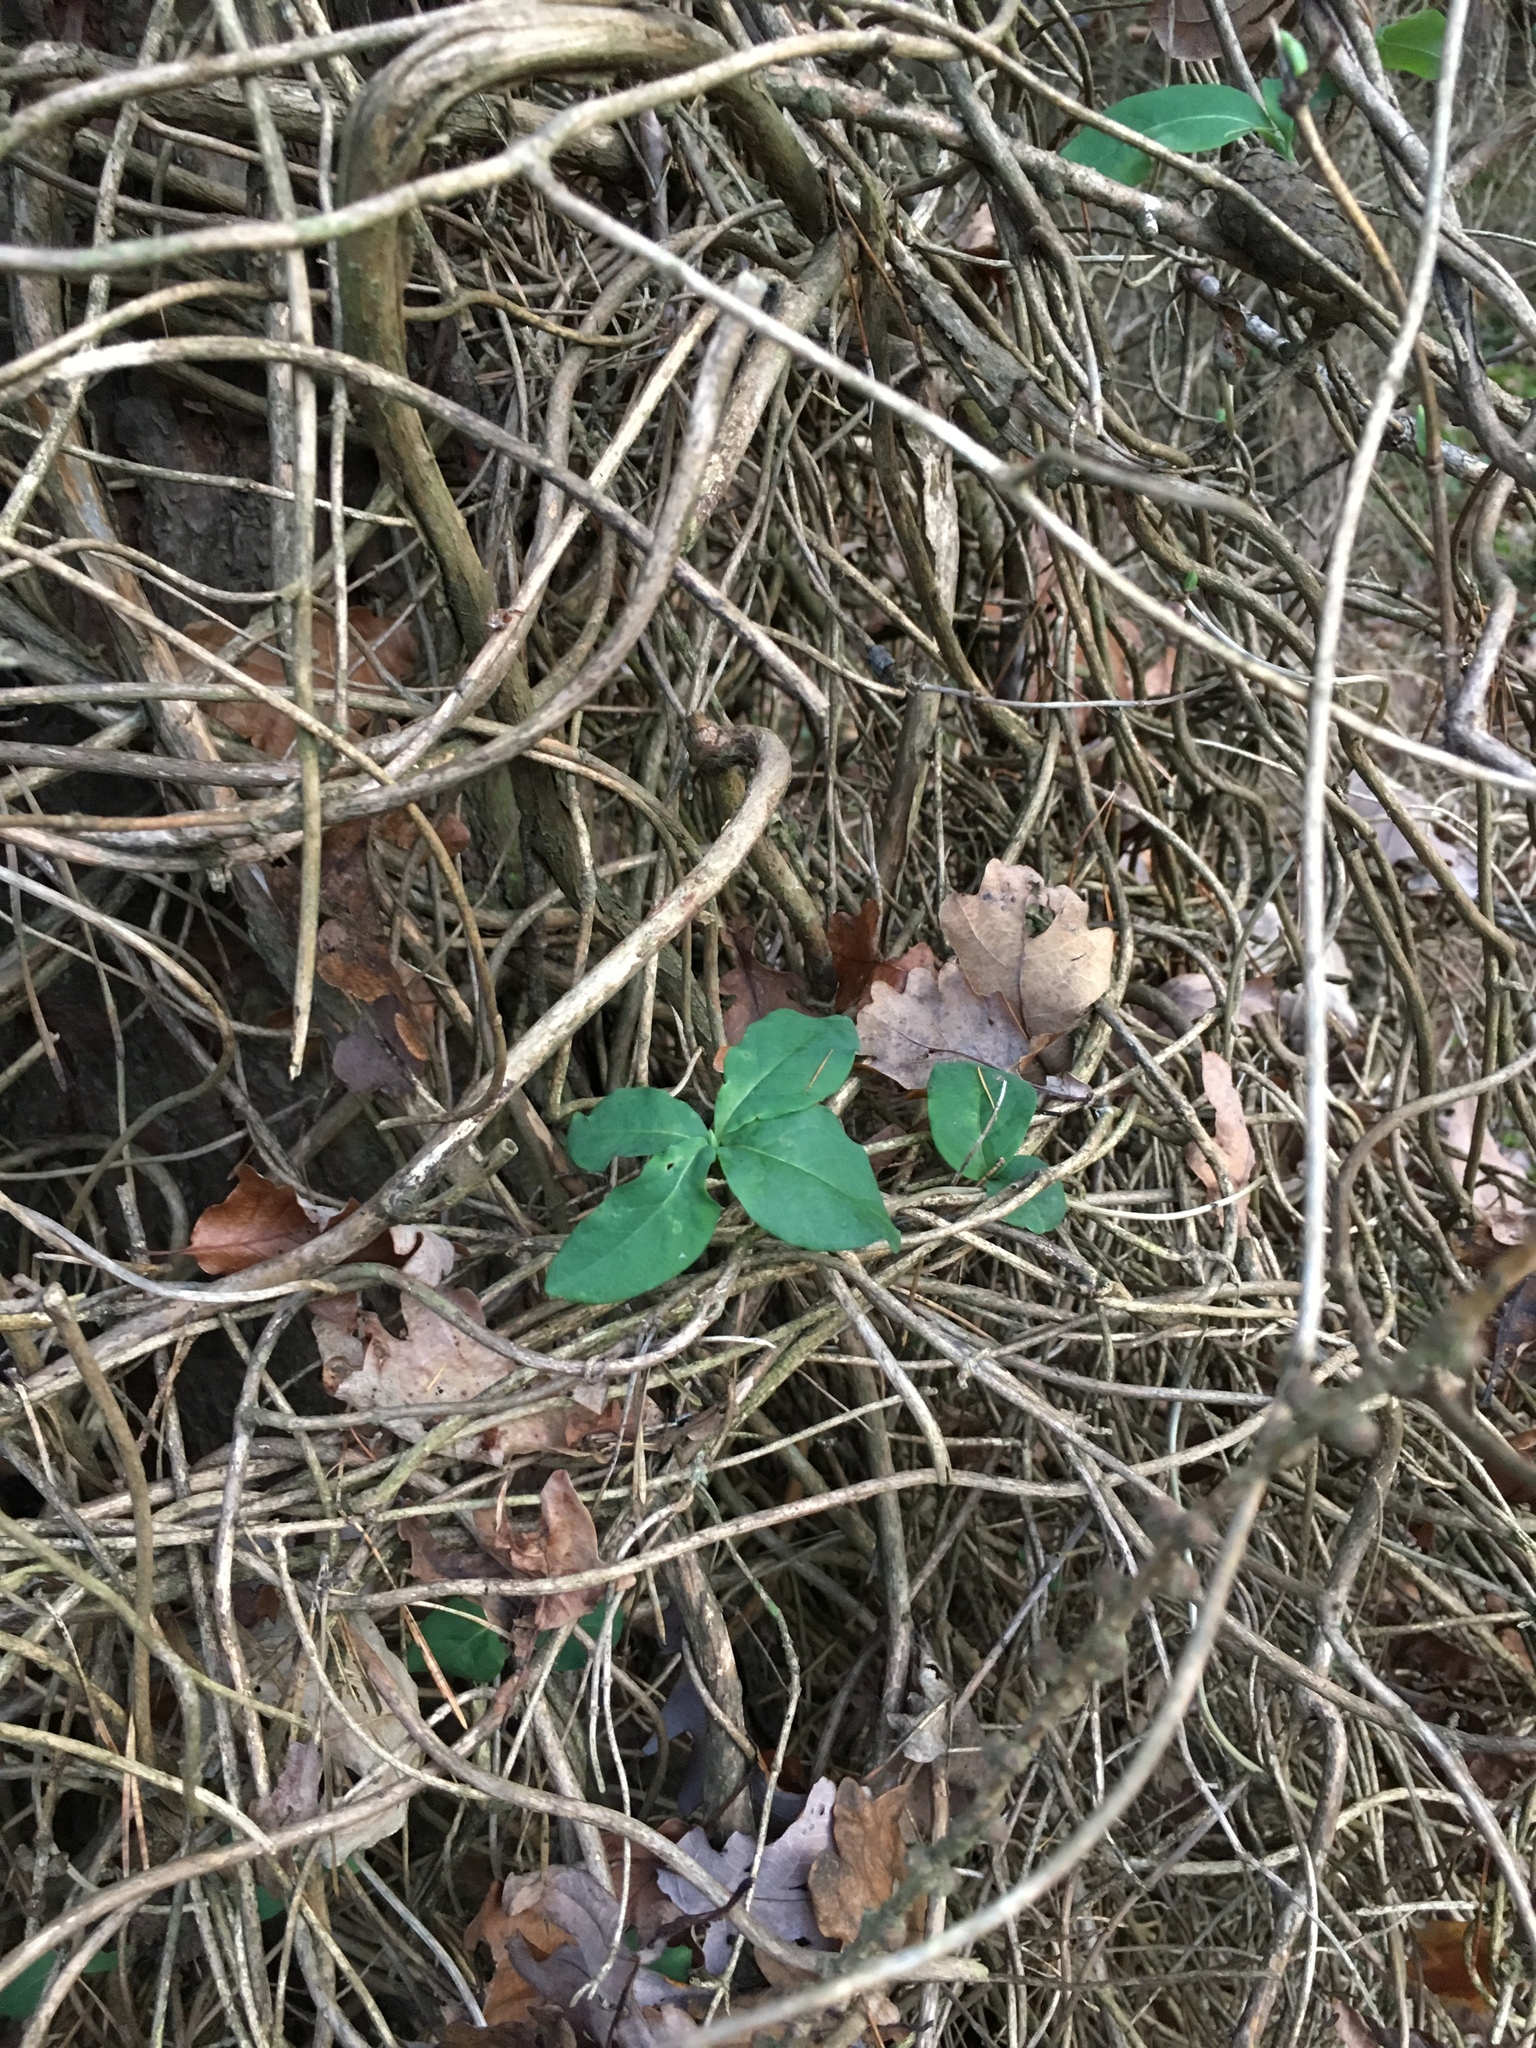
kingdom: Plantae
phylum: Tracheophyta
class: Magnoliopsida
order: Dipsacales
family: Caprifoliaceae
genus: Lonicera
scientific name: Lonicera periclymenum
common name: European honeysuckle
